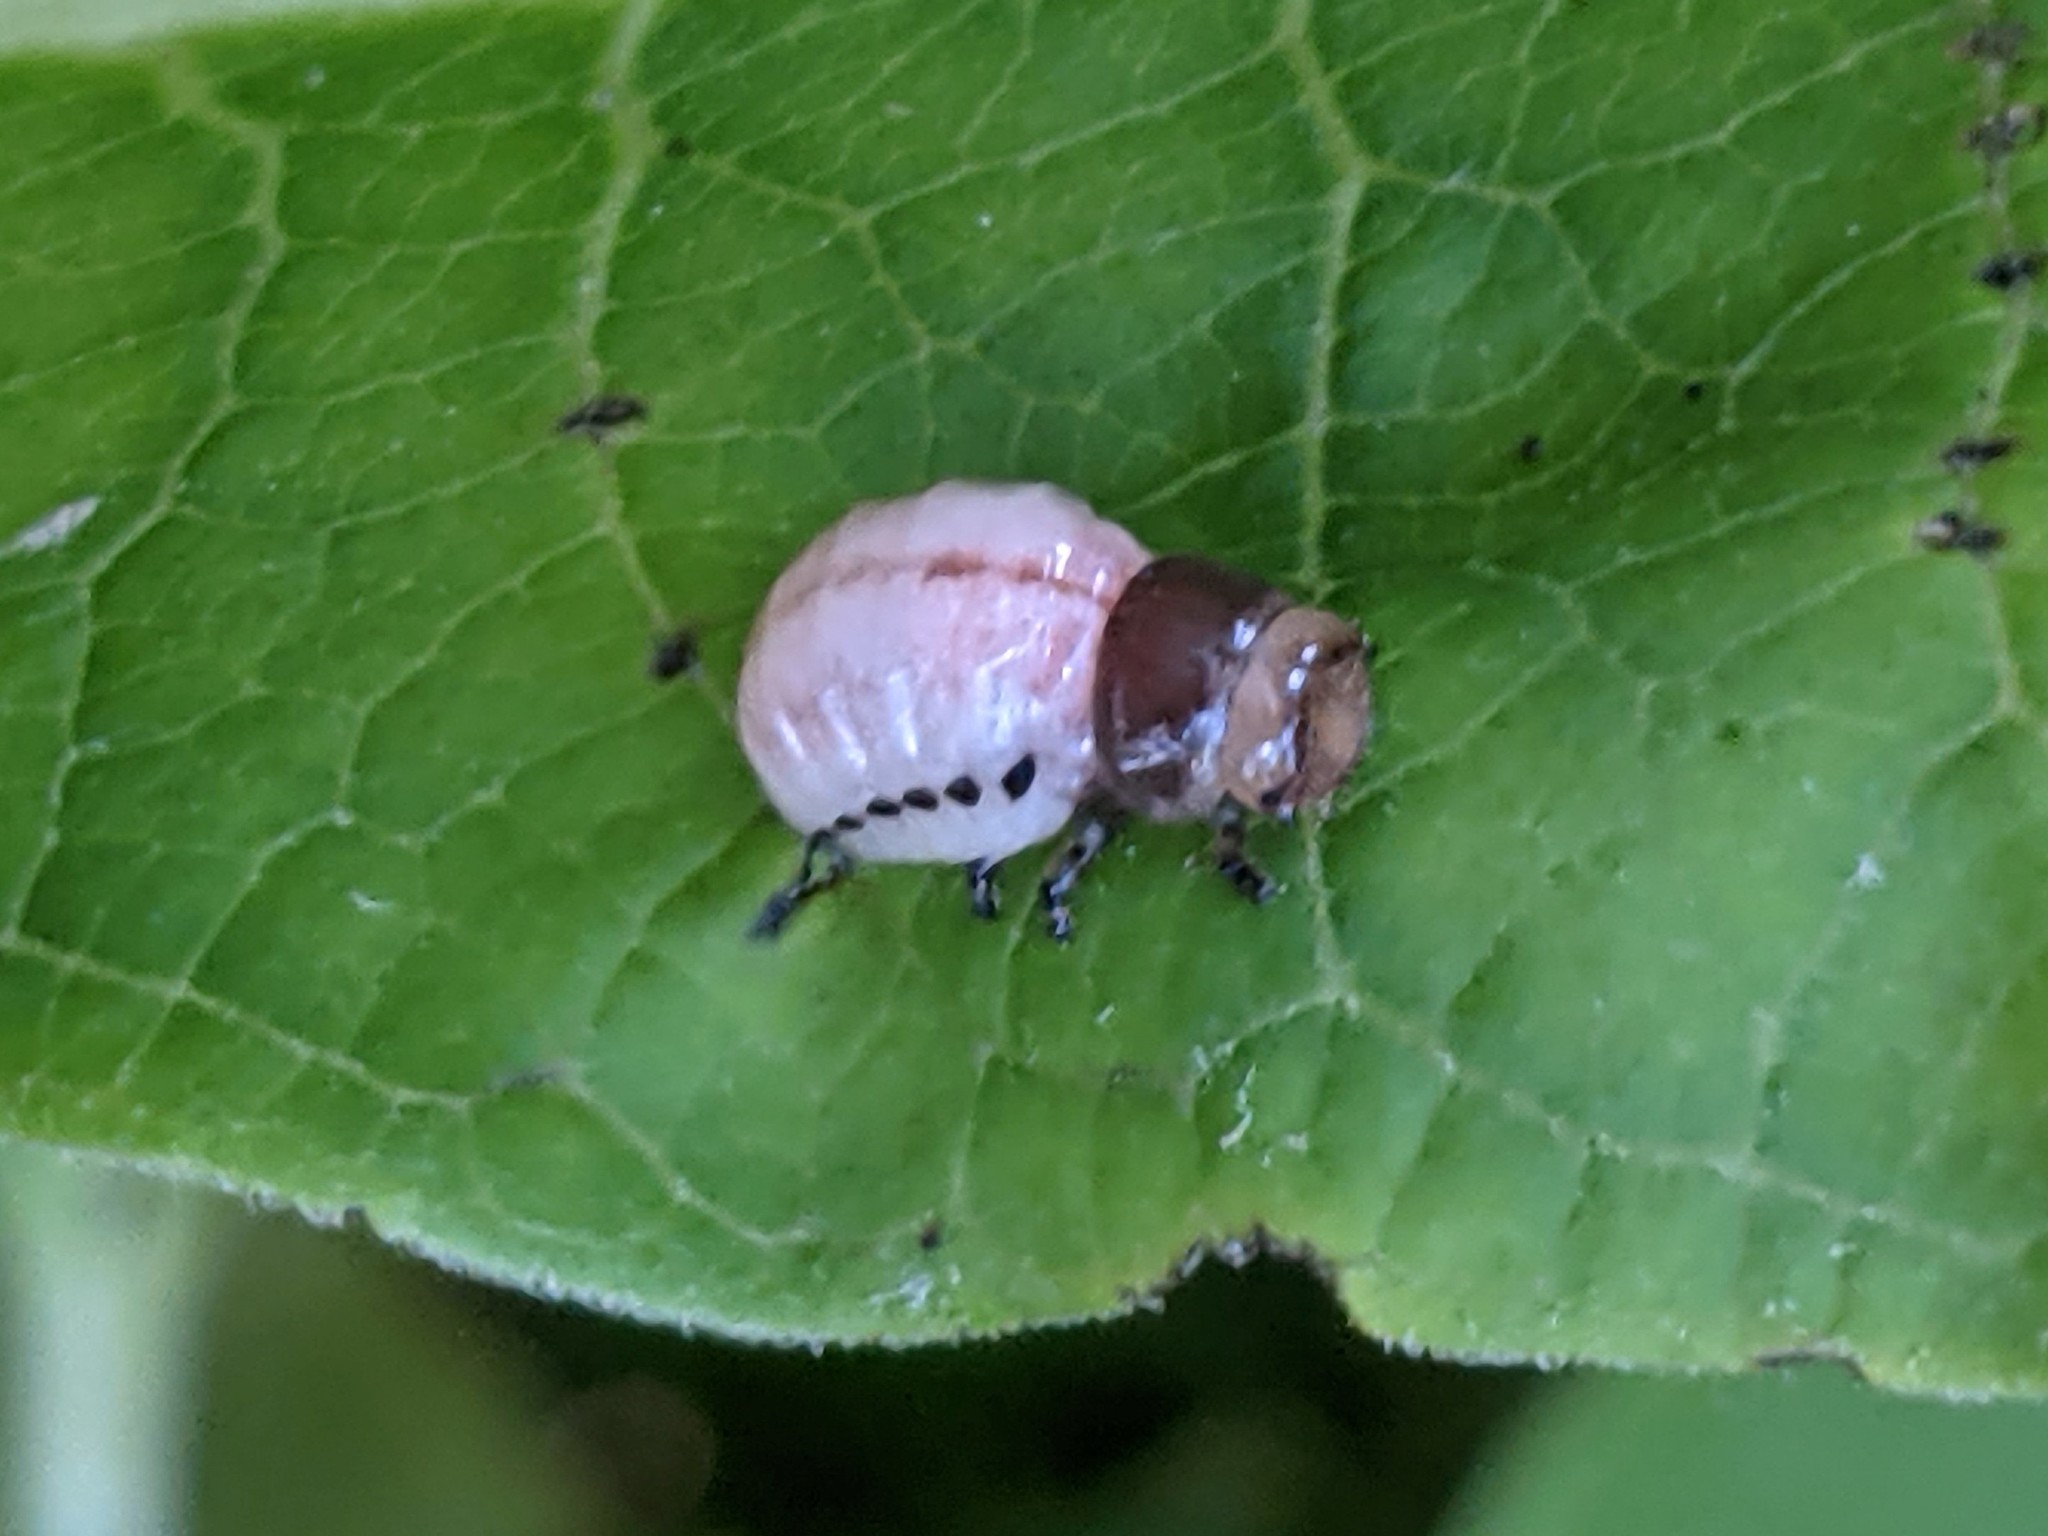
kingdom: Animalia
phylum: Arthropoda
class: Insecta
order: Coleoptera
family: Chrysomelidae
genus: Labidomera
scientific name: Labidomera clivicollis
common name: Swamp milkweed leaf beetle
